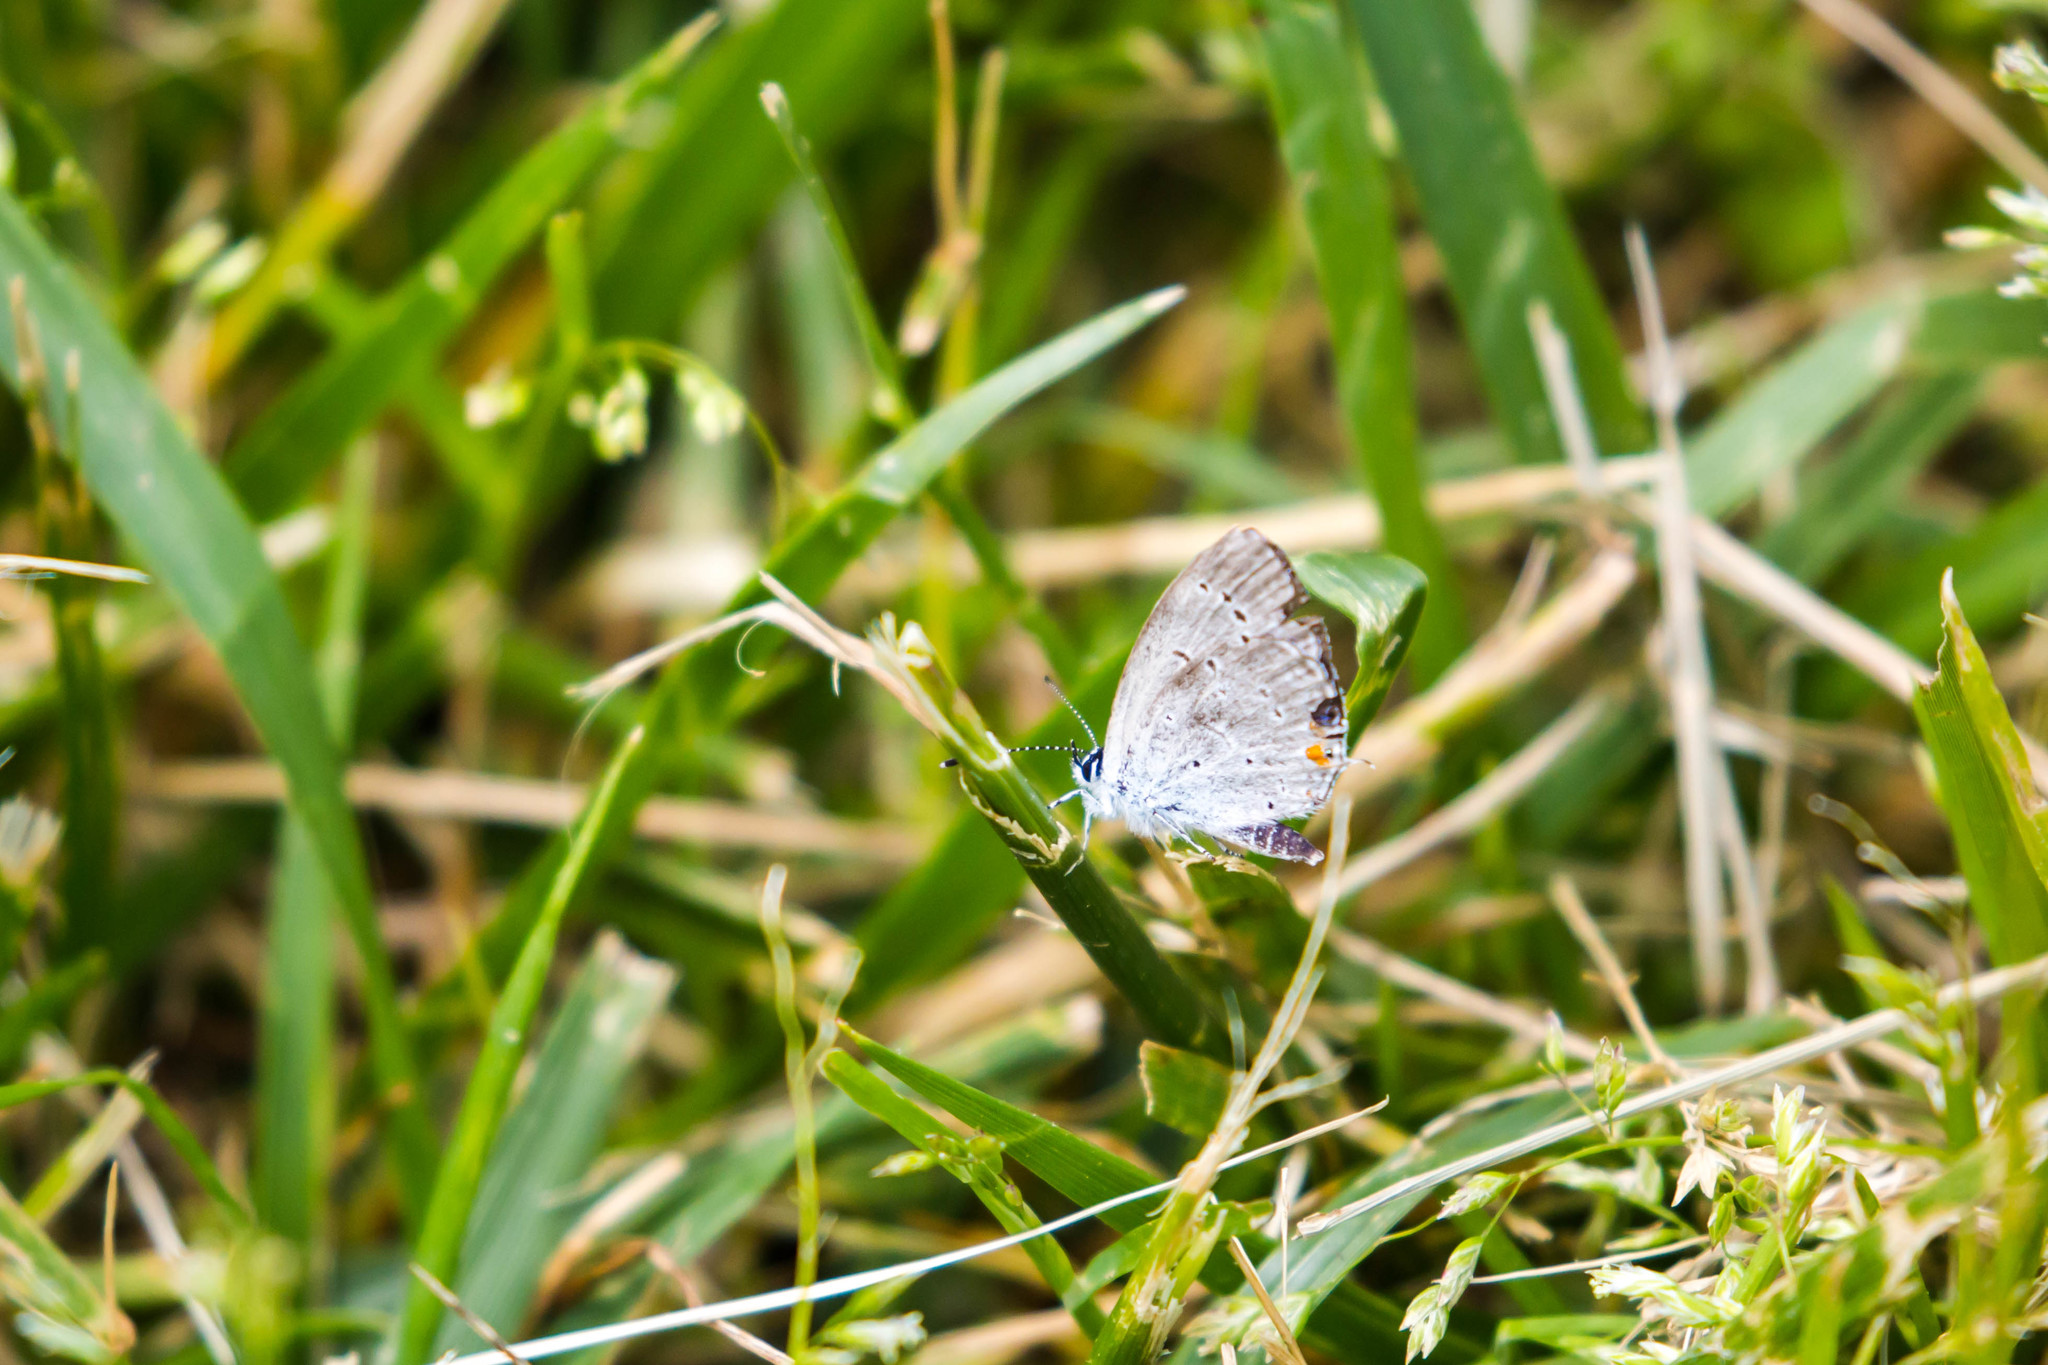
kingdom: Animalia
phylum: Arthropoda
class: Insecta
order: Lepidoptera
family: Lycaenidae
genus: Elkalyce
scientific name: Elkalyce comyntas
